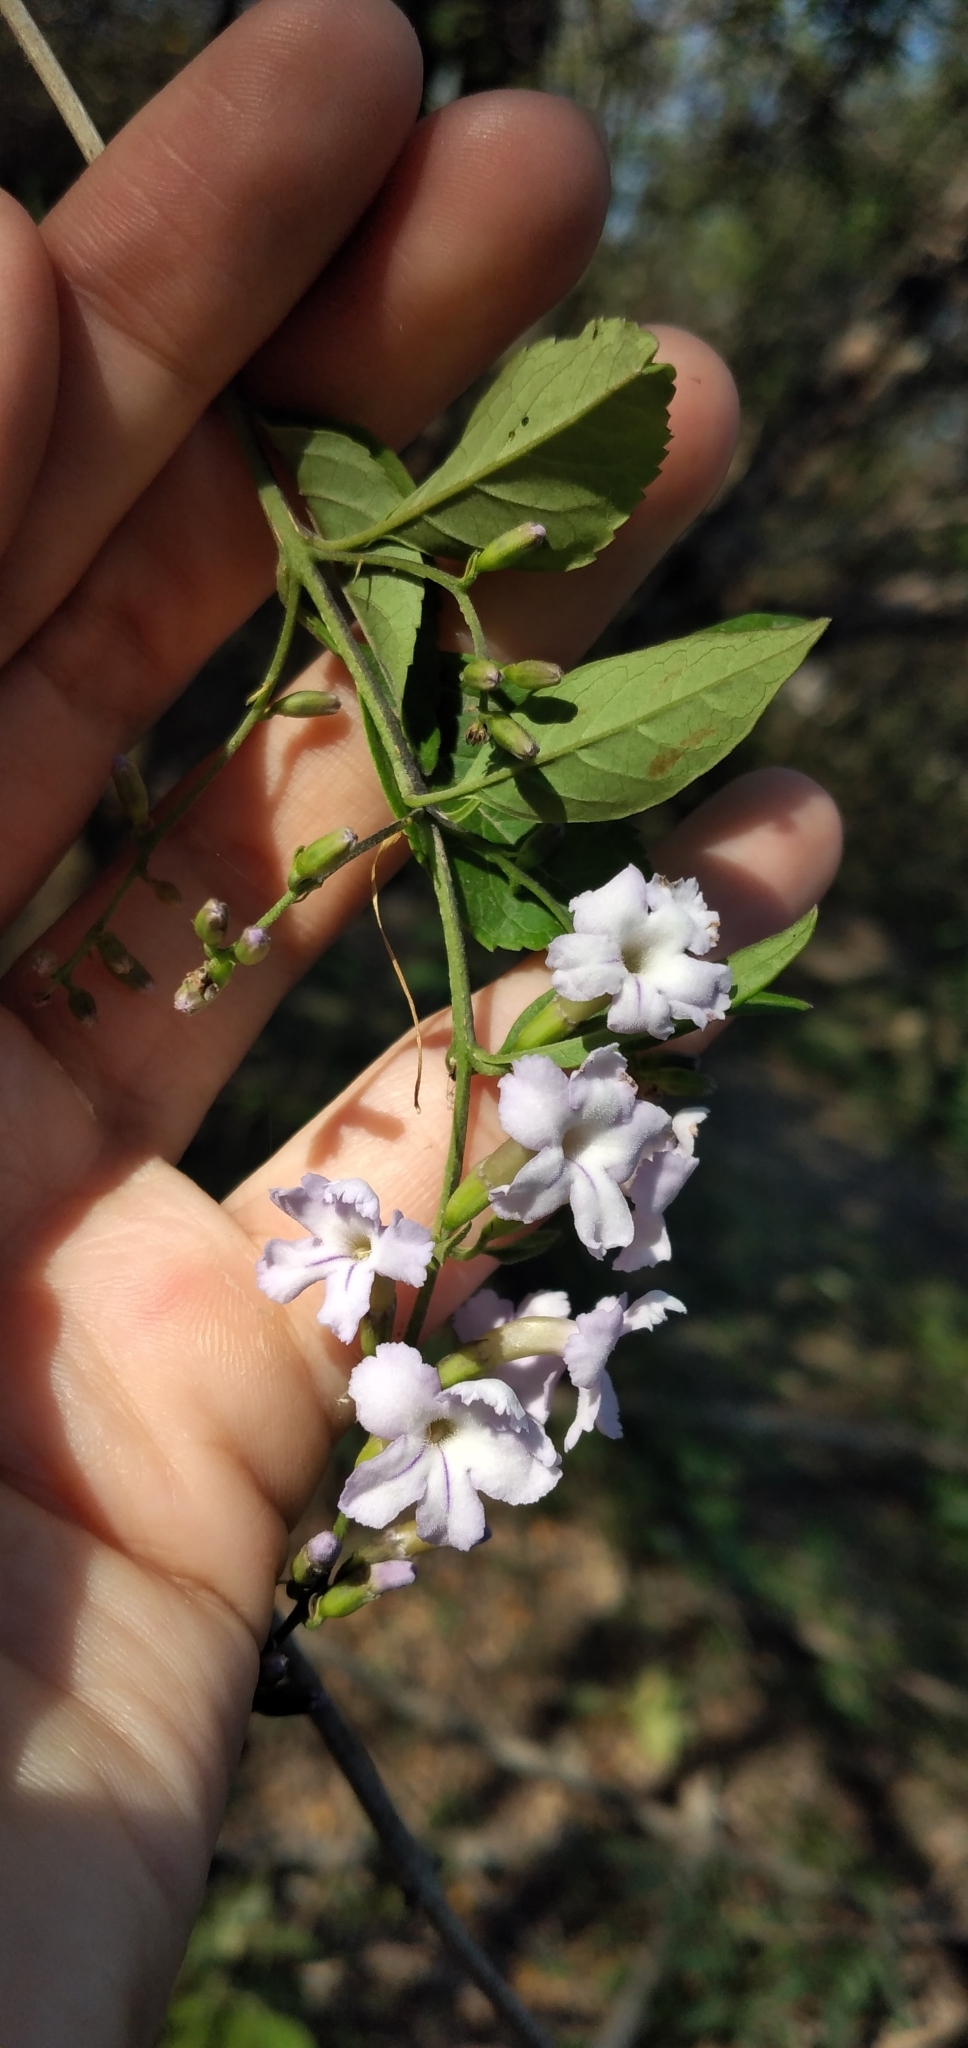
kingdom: Plantae
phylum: Tracheophyta
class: Magnoliopsida
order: Lamiales
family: Verbenaceae
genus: Duranta
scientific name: Duranta serratifolia
